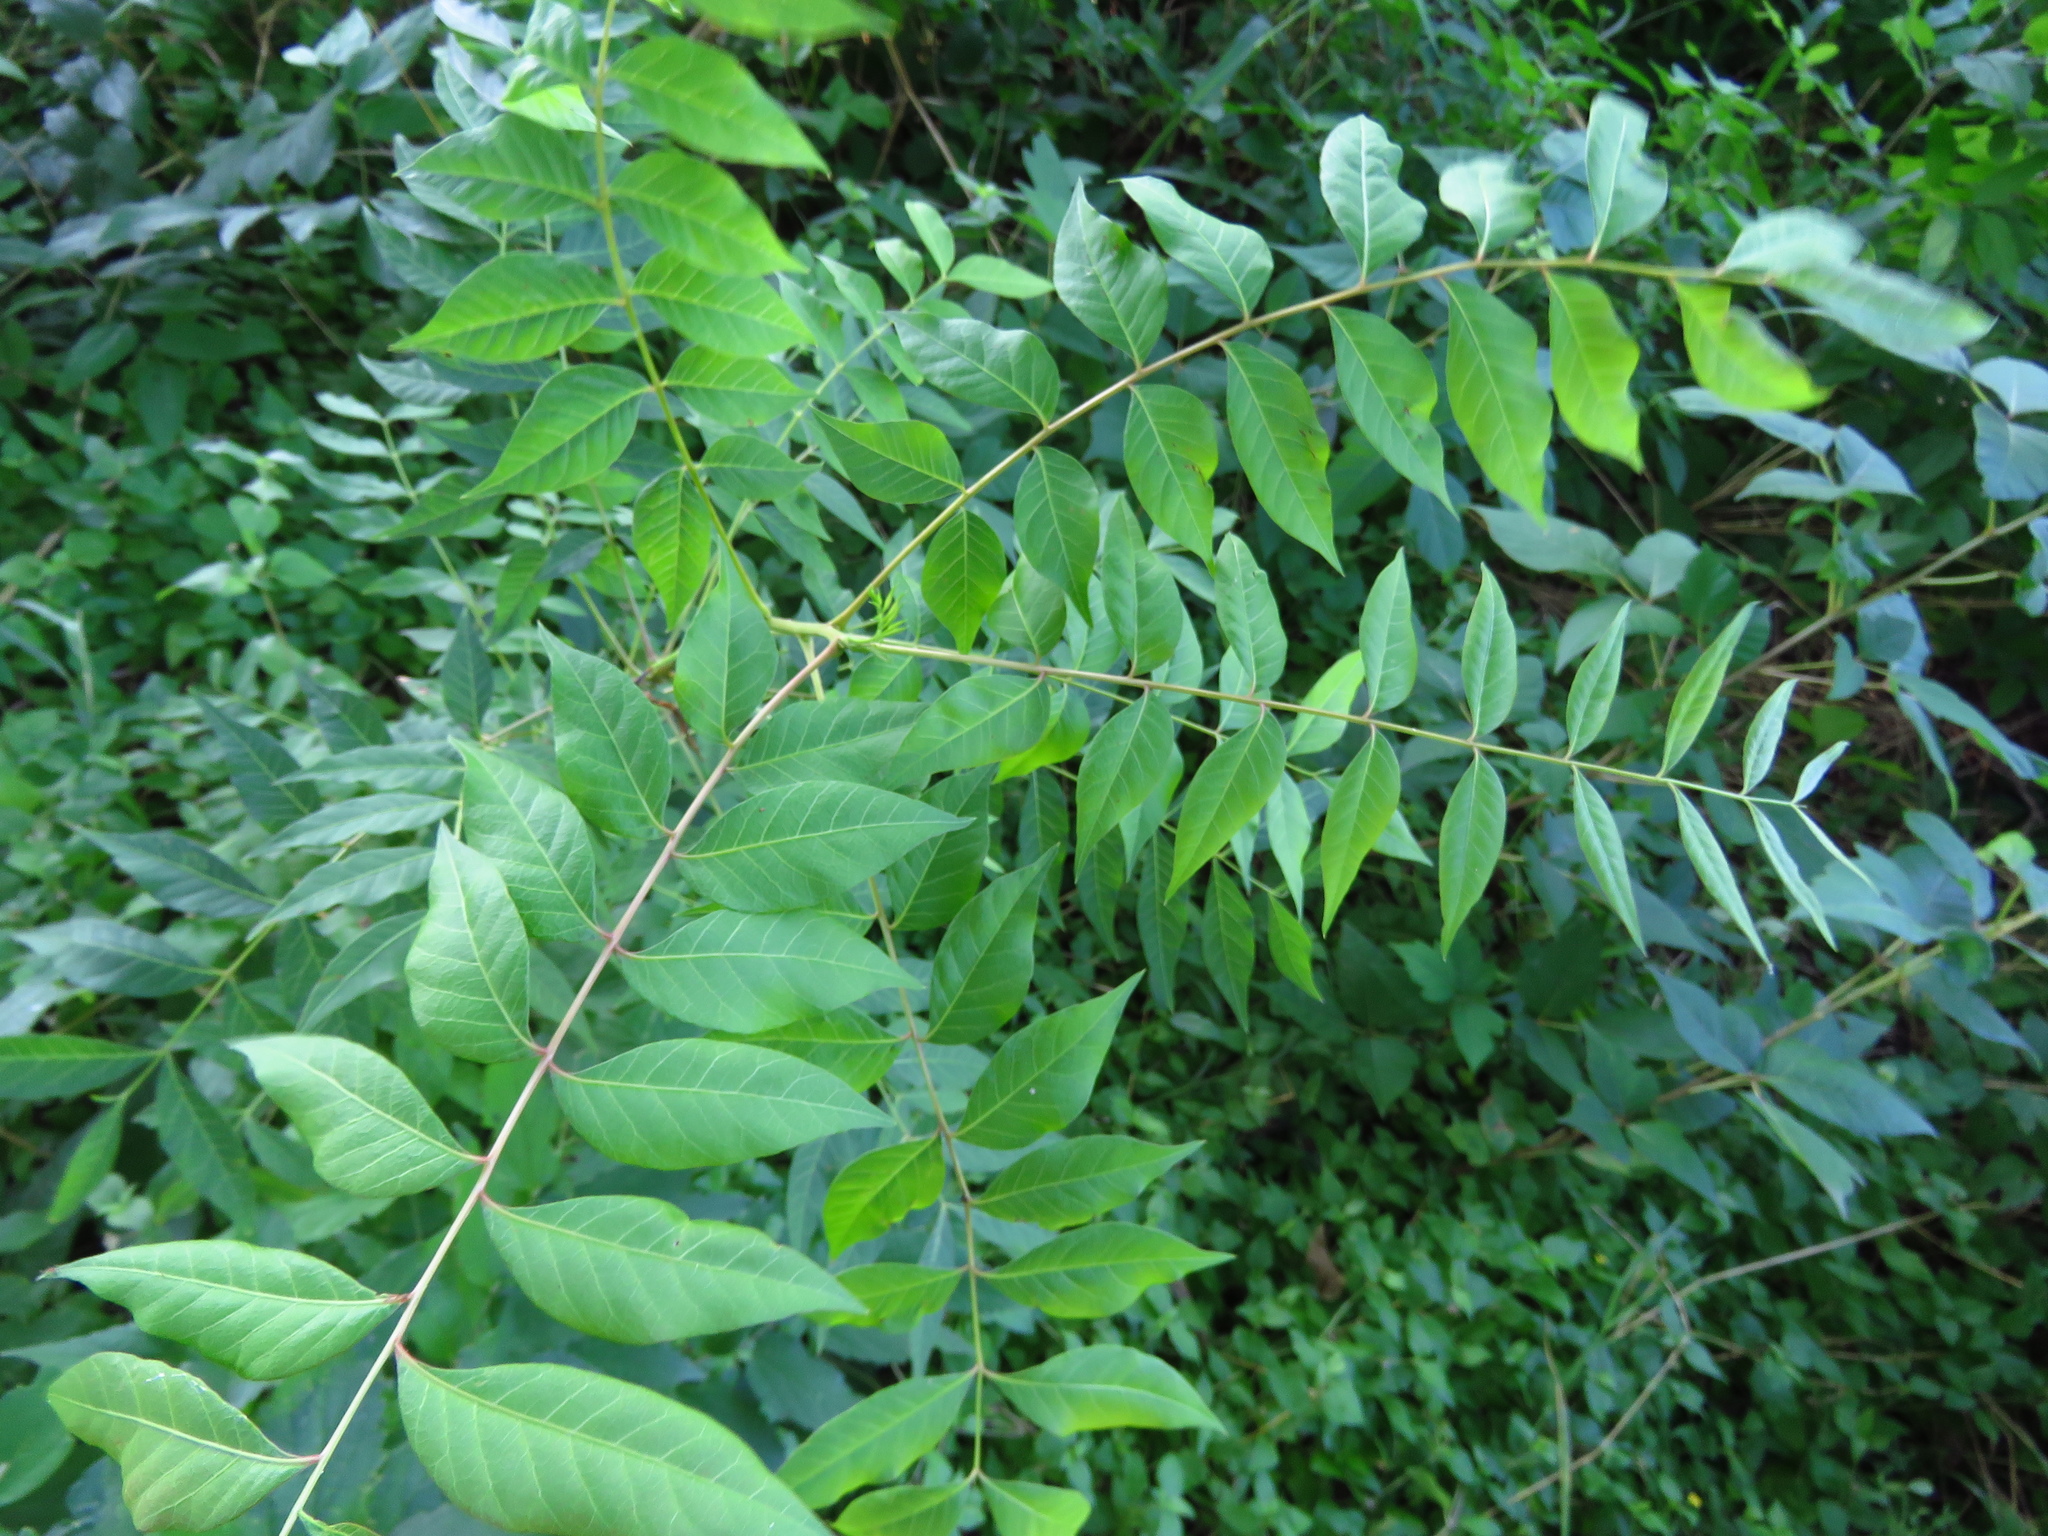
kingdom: Plantae
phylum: Tracheophyta
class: Magnoliopsida
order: Sapindales
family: Anacardiaceae
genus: Pistacia
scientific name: Pistacia chinensis
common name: Chinese pistache
